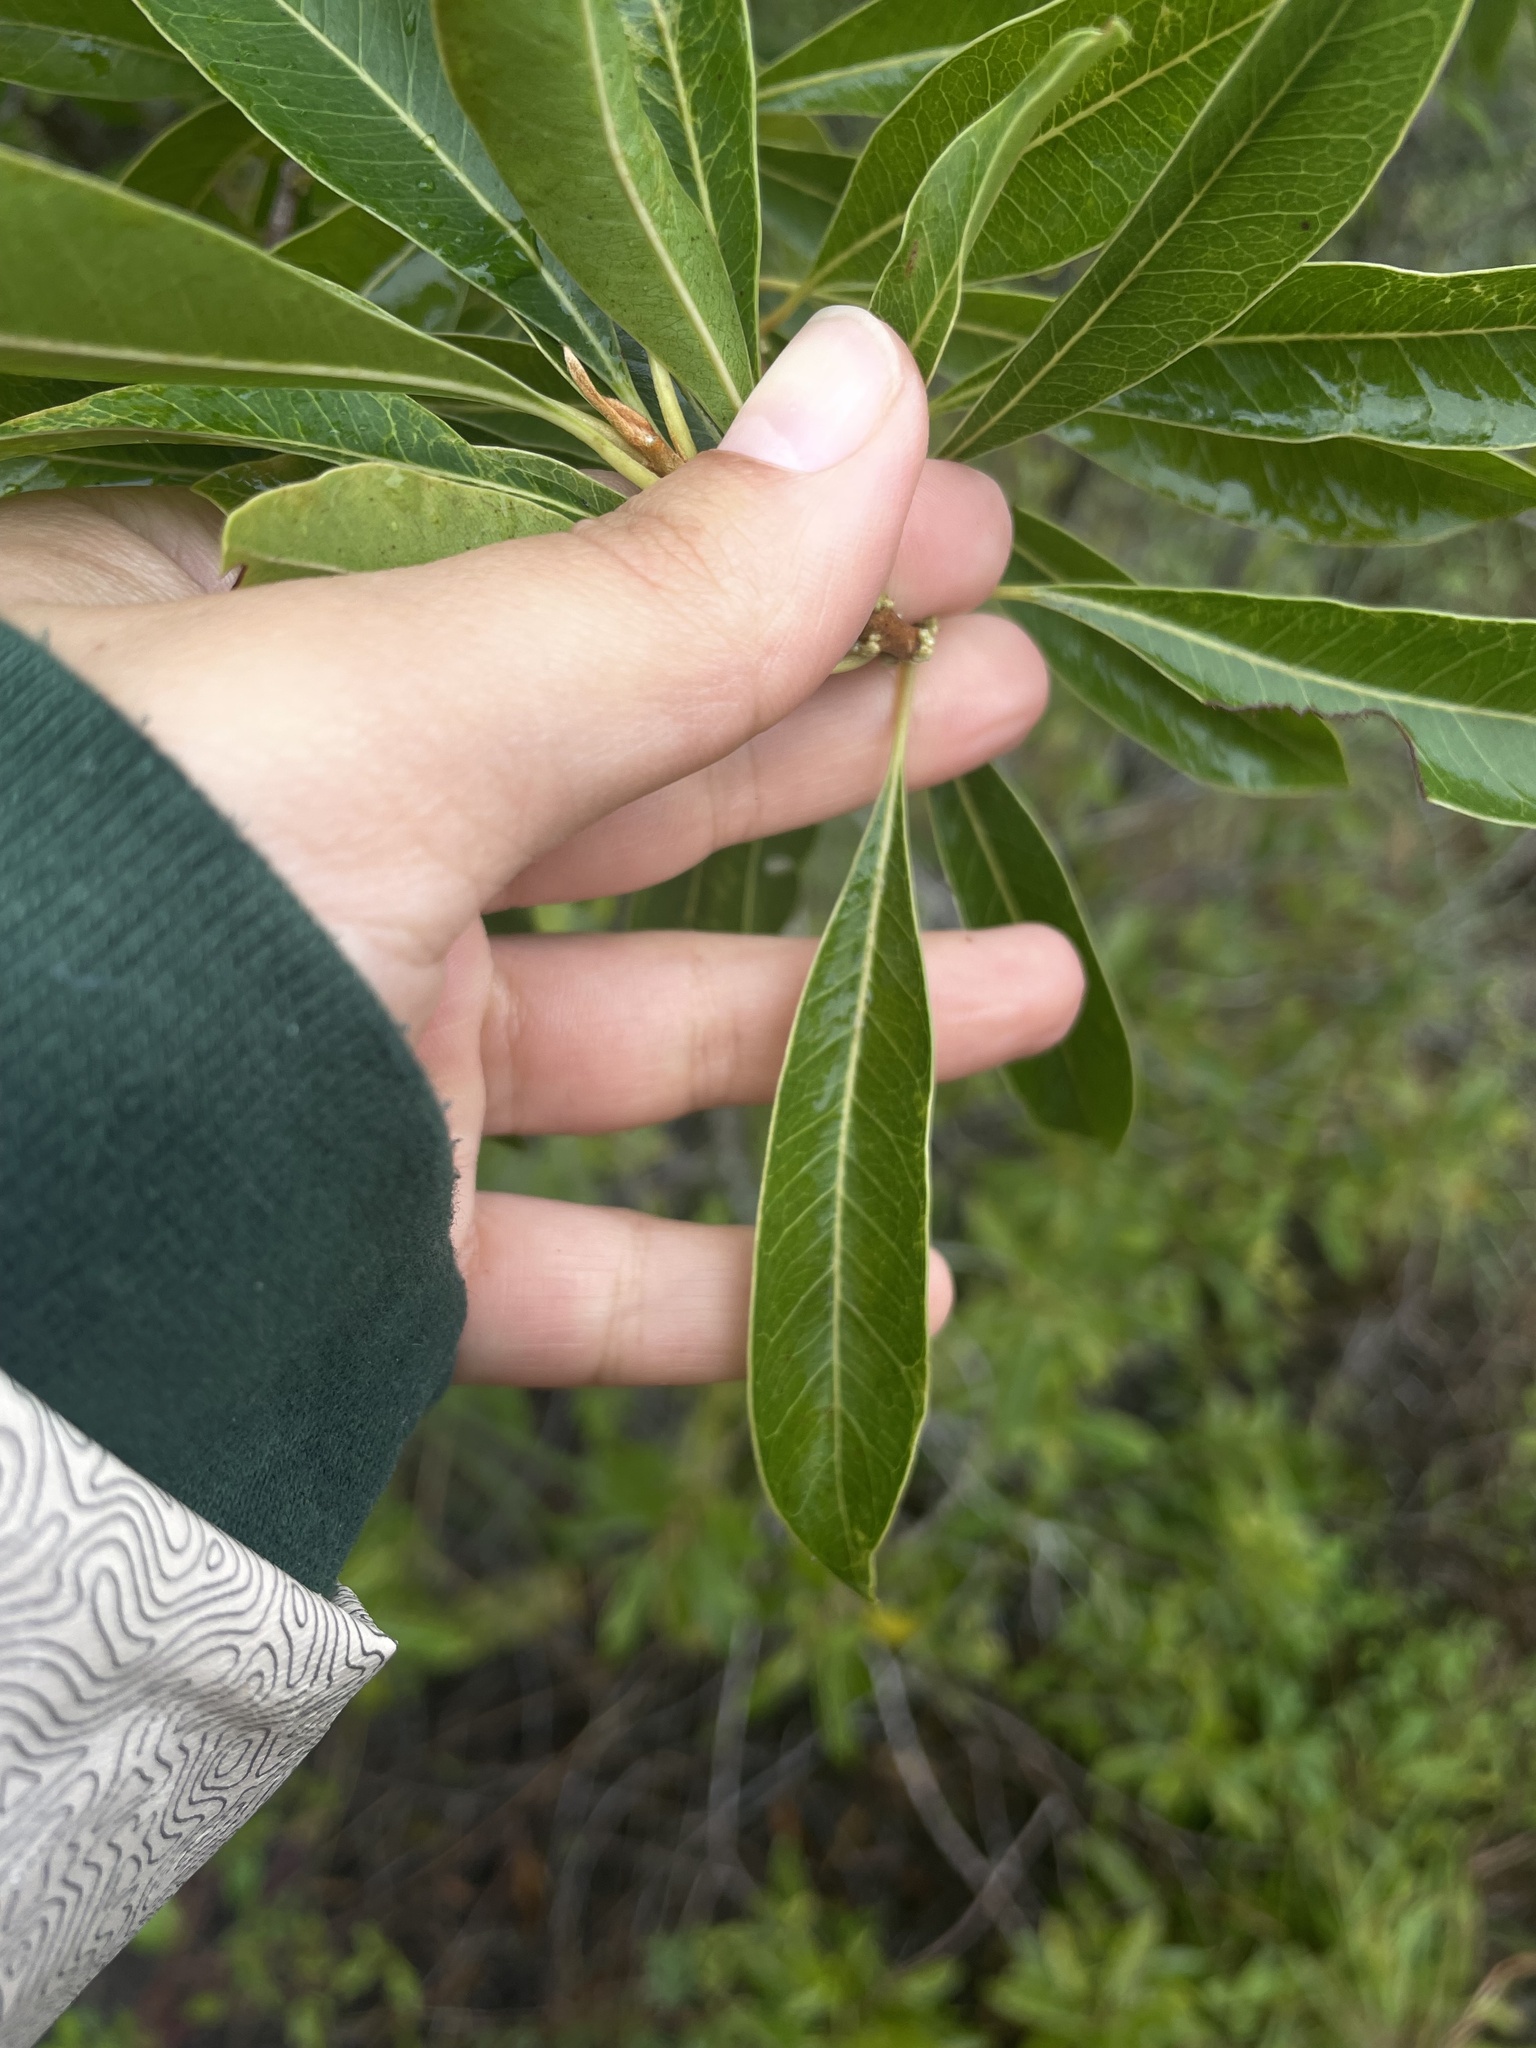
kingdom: Plantae
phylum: Tracheophyta
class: Magnoliopsida
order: Ericales
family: Sapotaceae
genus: Sideroxylon
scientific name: Sideroxylon salicifolium
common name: White bully
